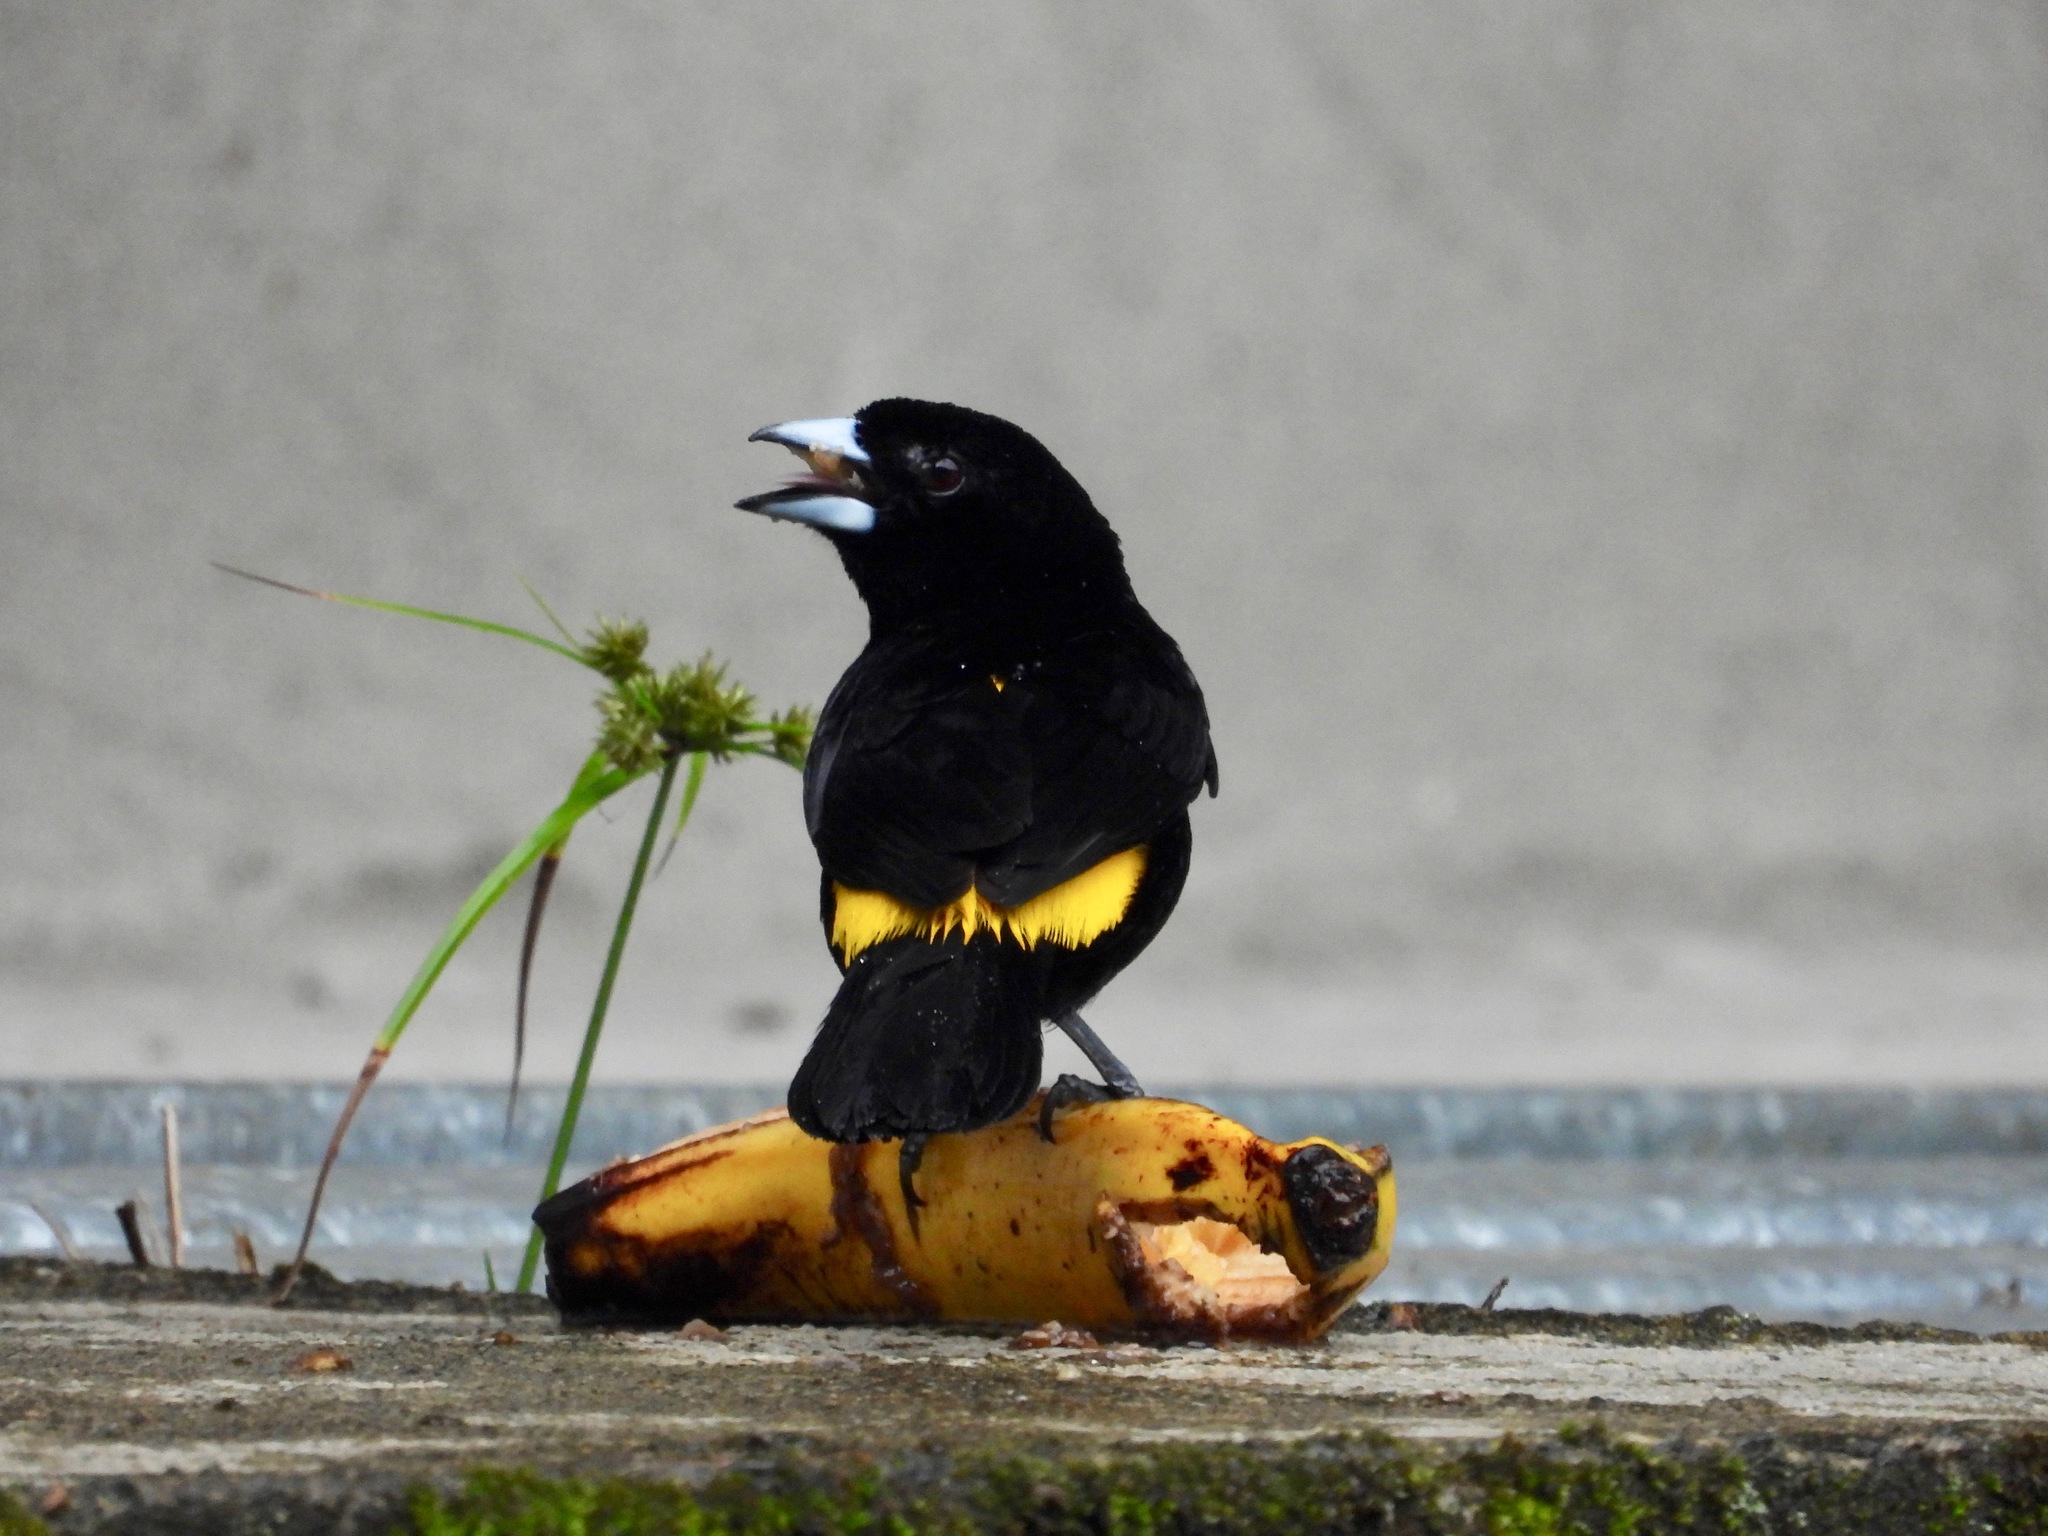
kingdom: Animalia
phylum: Chordata
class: Aves
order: Passeriformes
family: Thraupidae
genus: Ramphocelus
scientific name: Ramphocelus flammigerus
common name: Flame-rumped tanager
